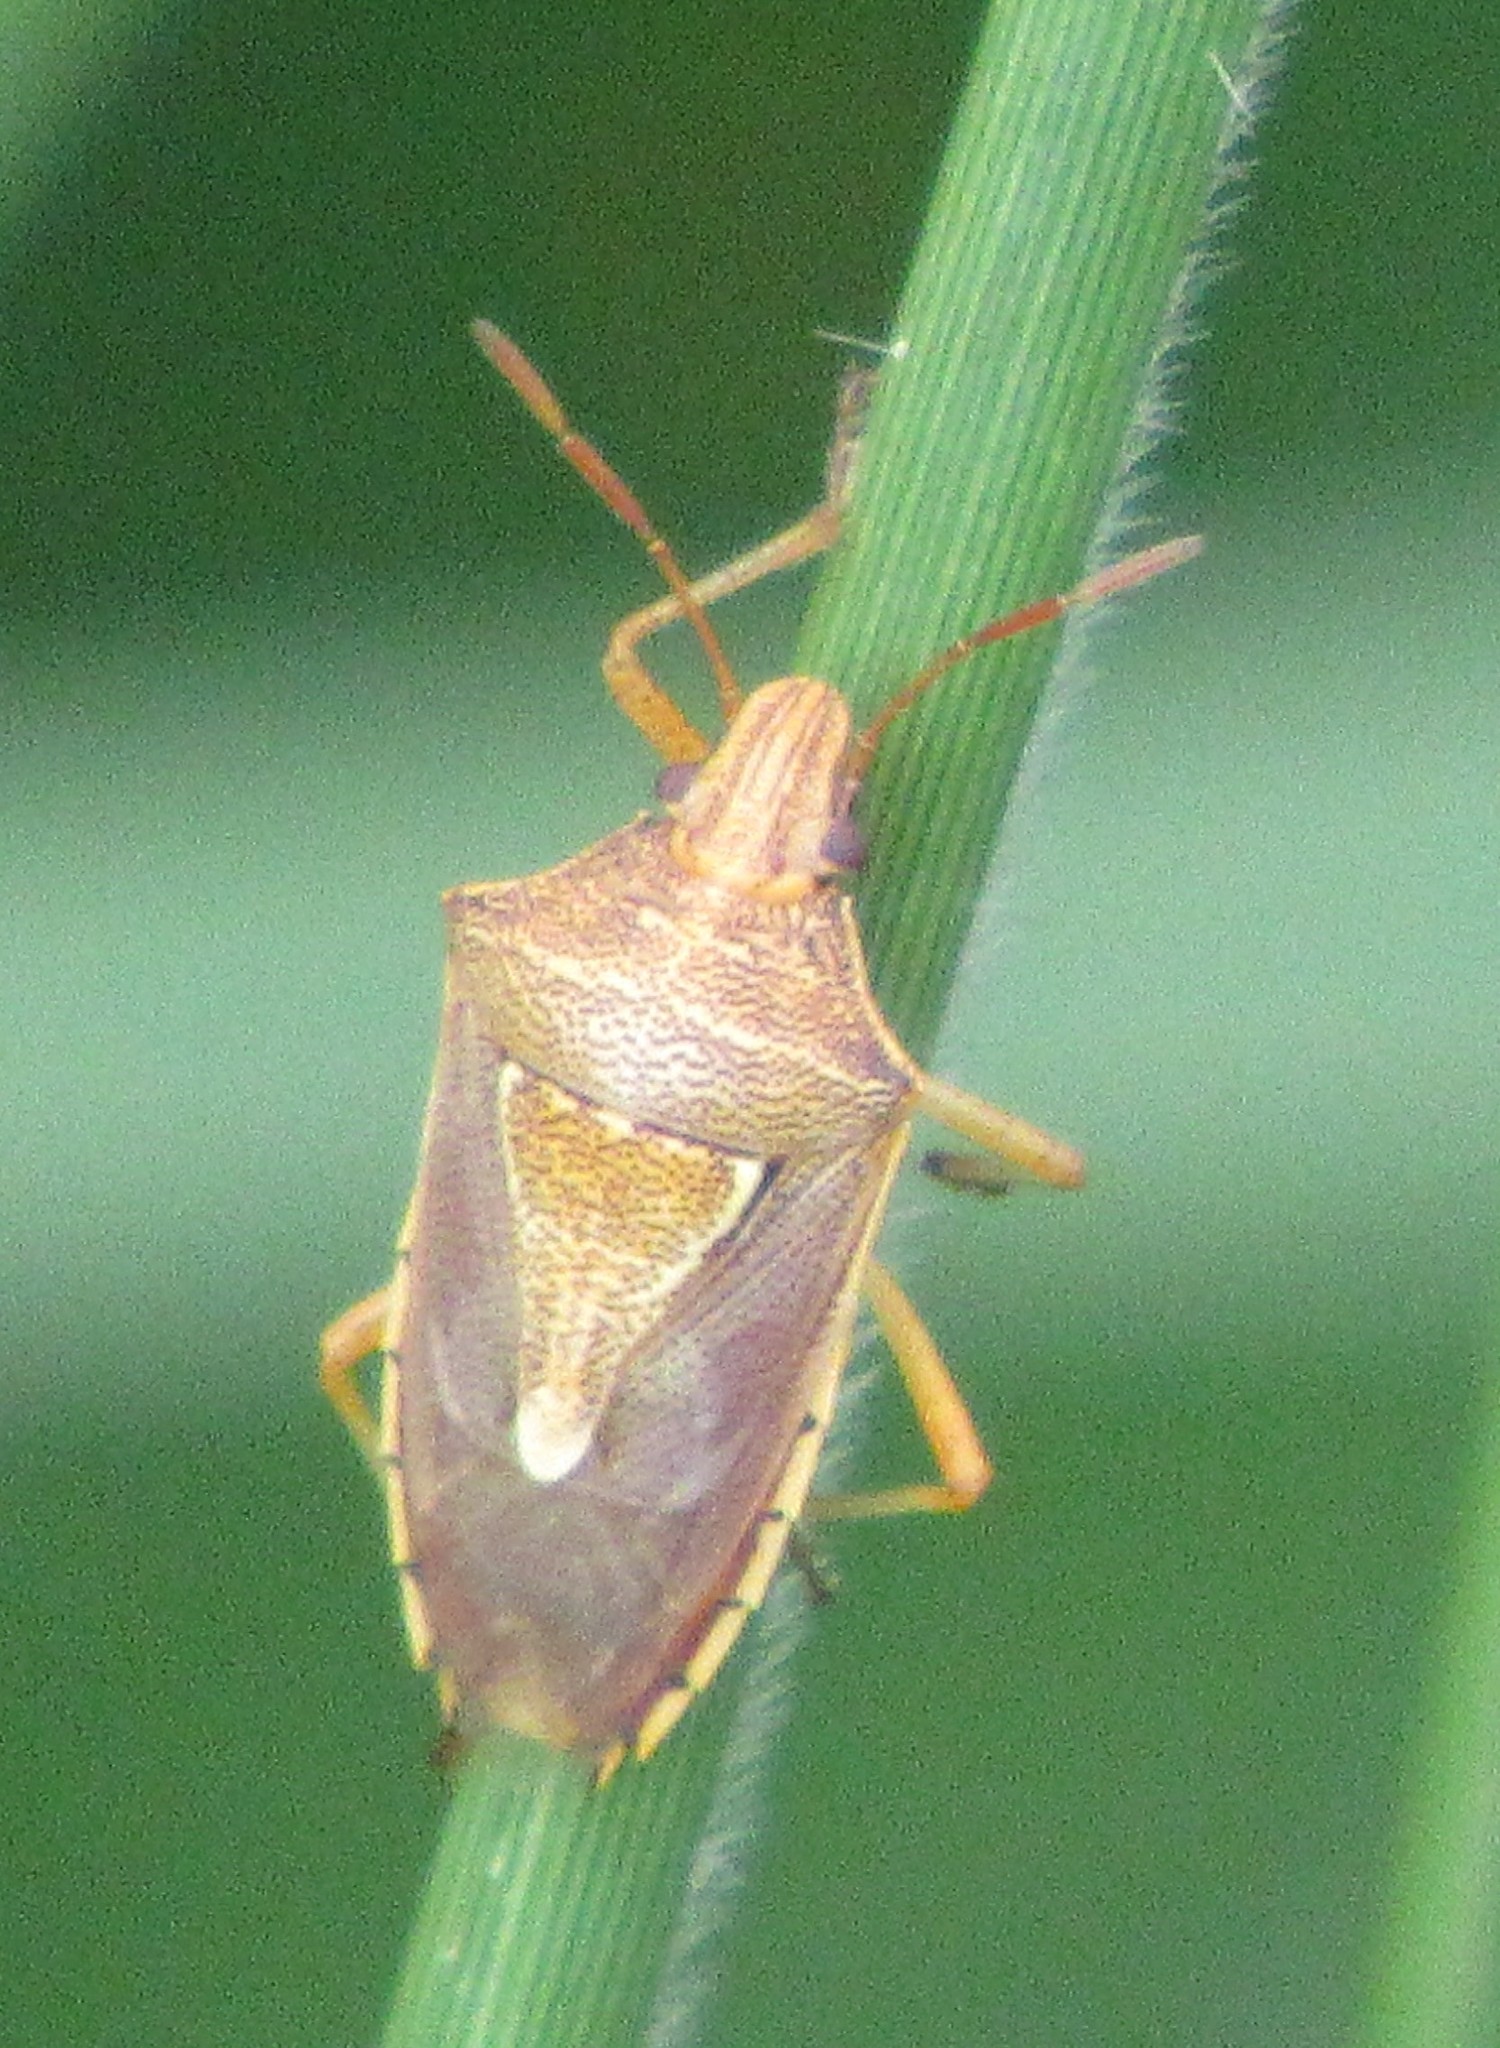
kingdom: Animalia
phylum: Arthropoda
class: Insecta
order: Hemiptera
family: Pentatomidae
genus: Oebalus
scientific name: Oebalus ypsilongriseus
